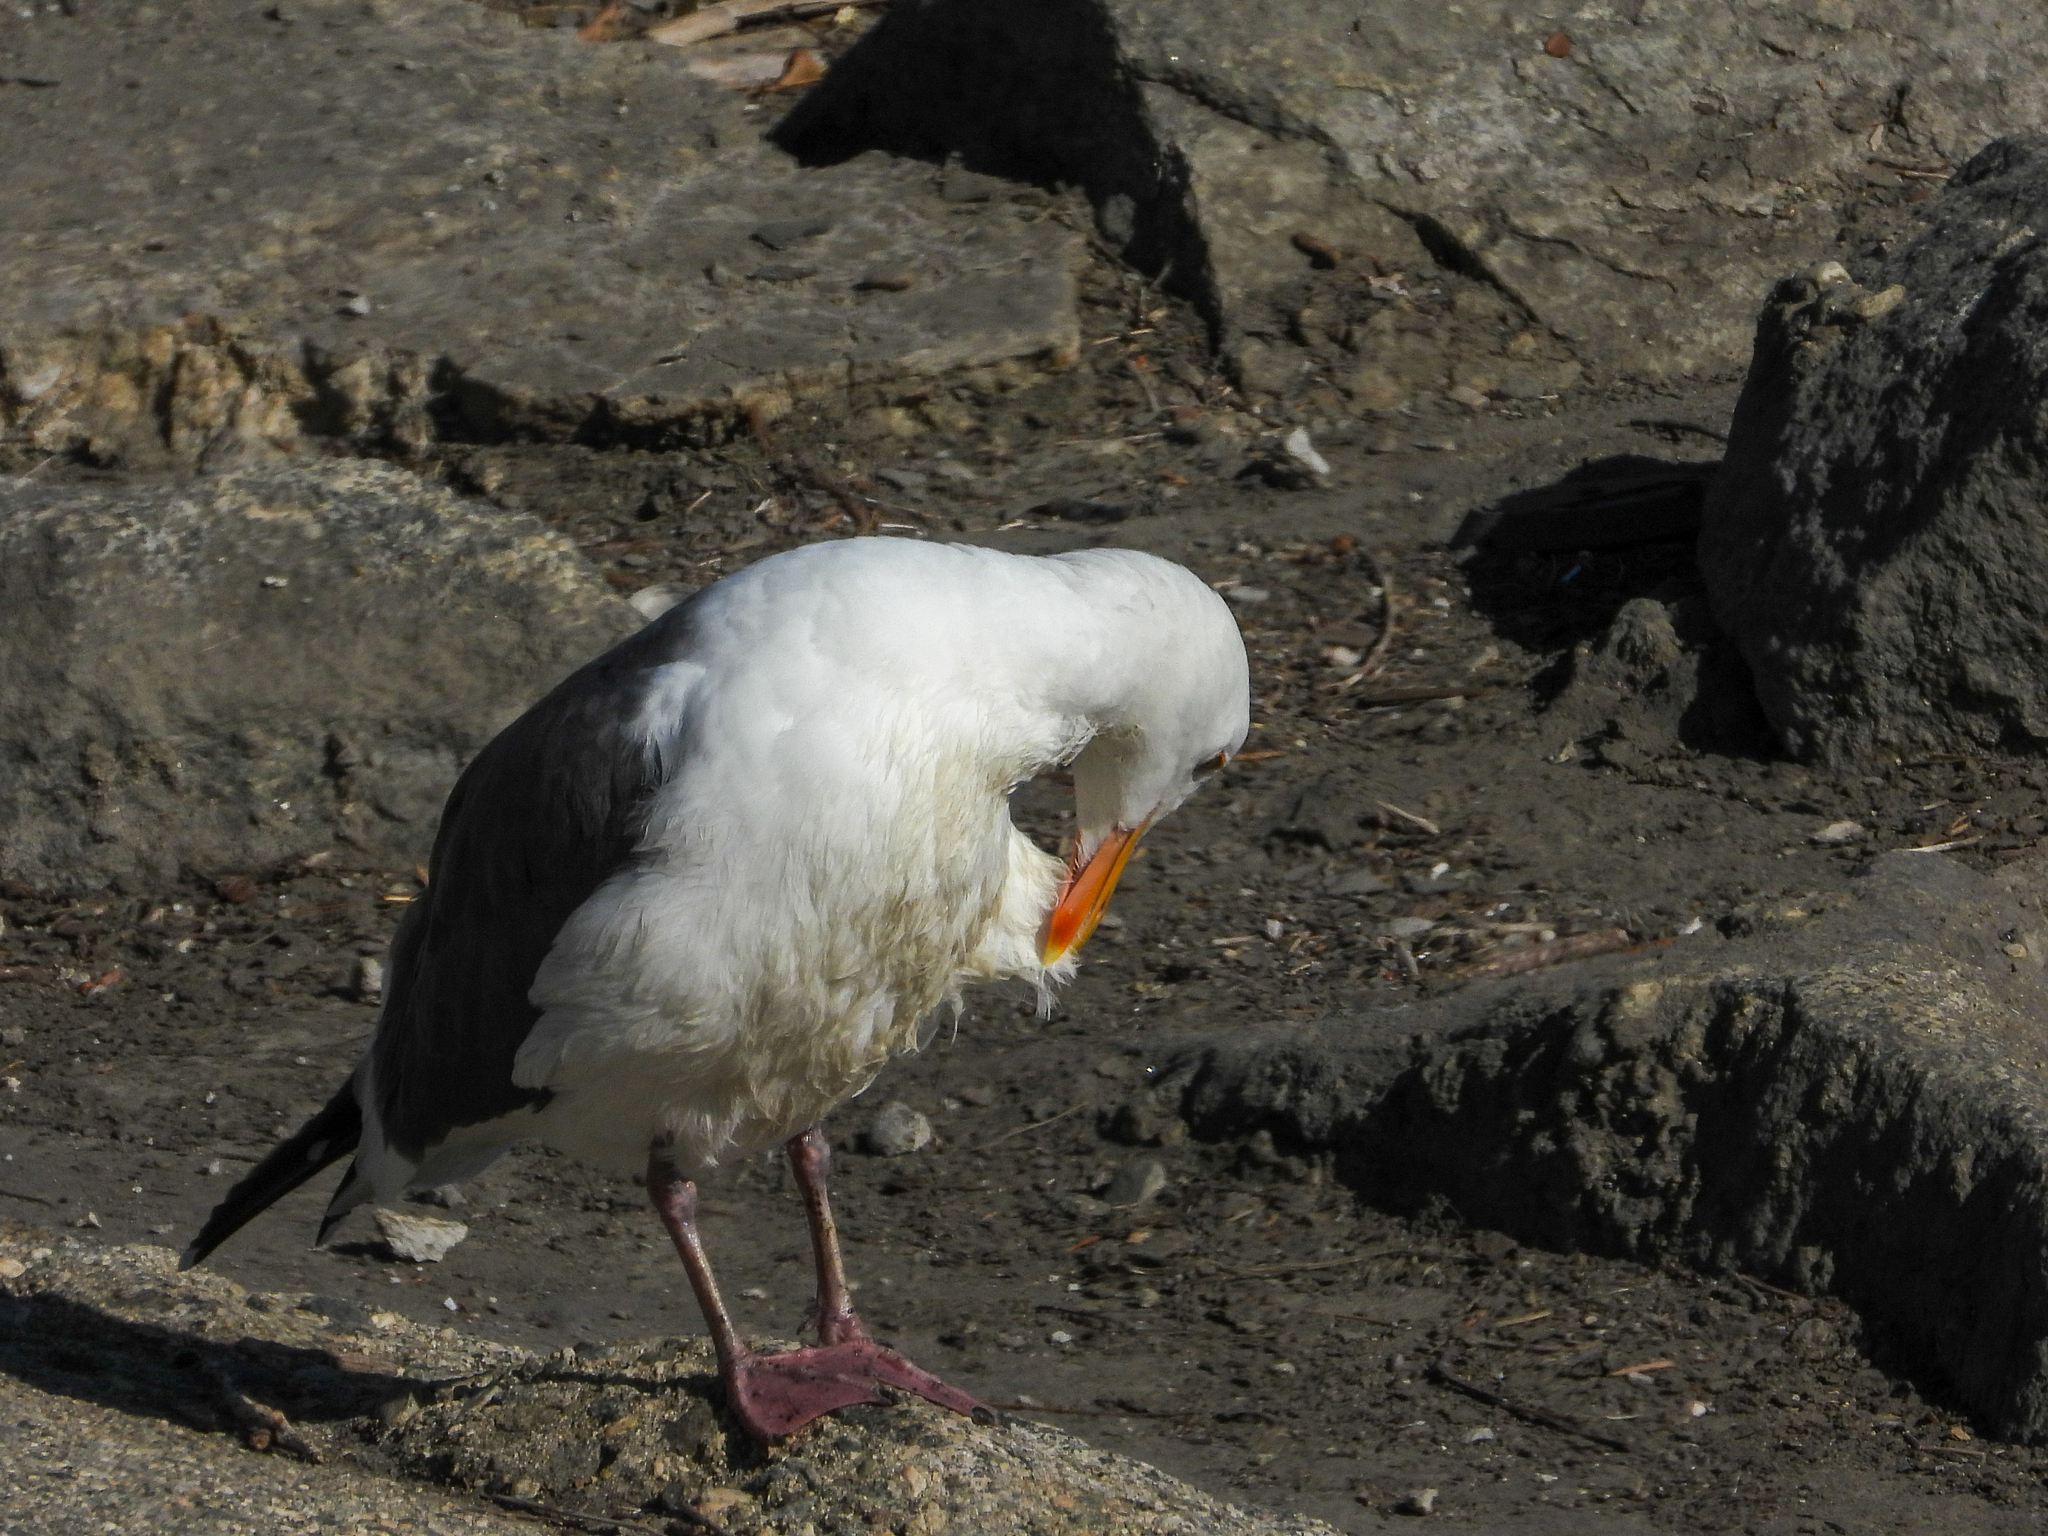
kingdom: Animalia
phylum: Chordata
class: Aves
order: Charadriiformes
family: Laridae
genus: Larus
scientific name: Larus occidentalis
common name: Western gull
